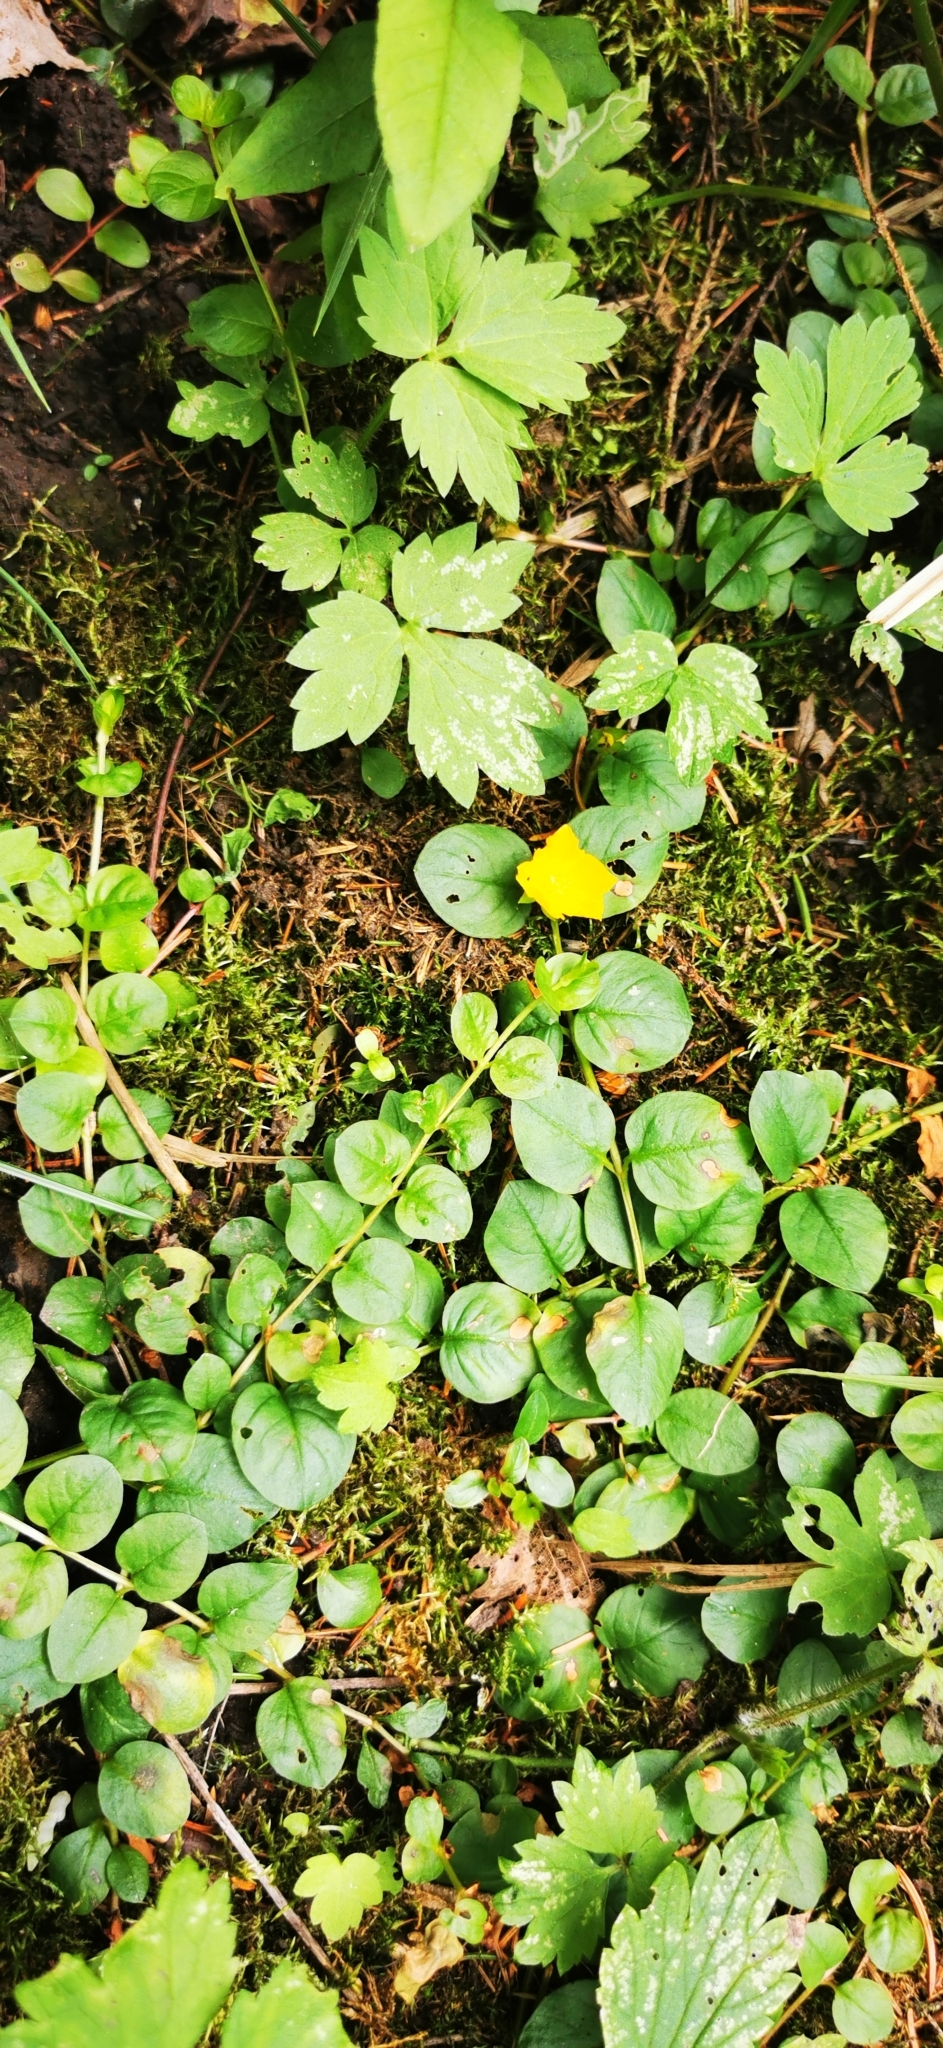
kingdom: Plantae
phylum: Tracheophyta
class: Magnoliopsida
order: Ericales
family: Primulaceae
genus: Lysimachia
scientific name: Lysimachia nummularia
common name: Moneywort
